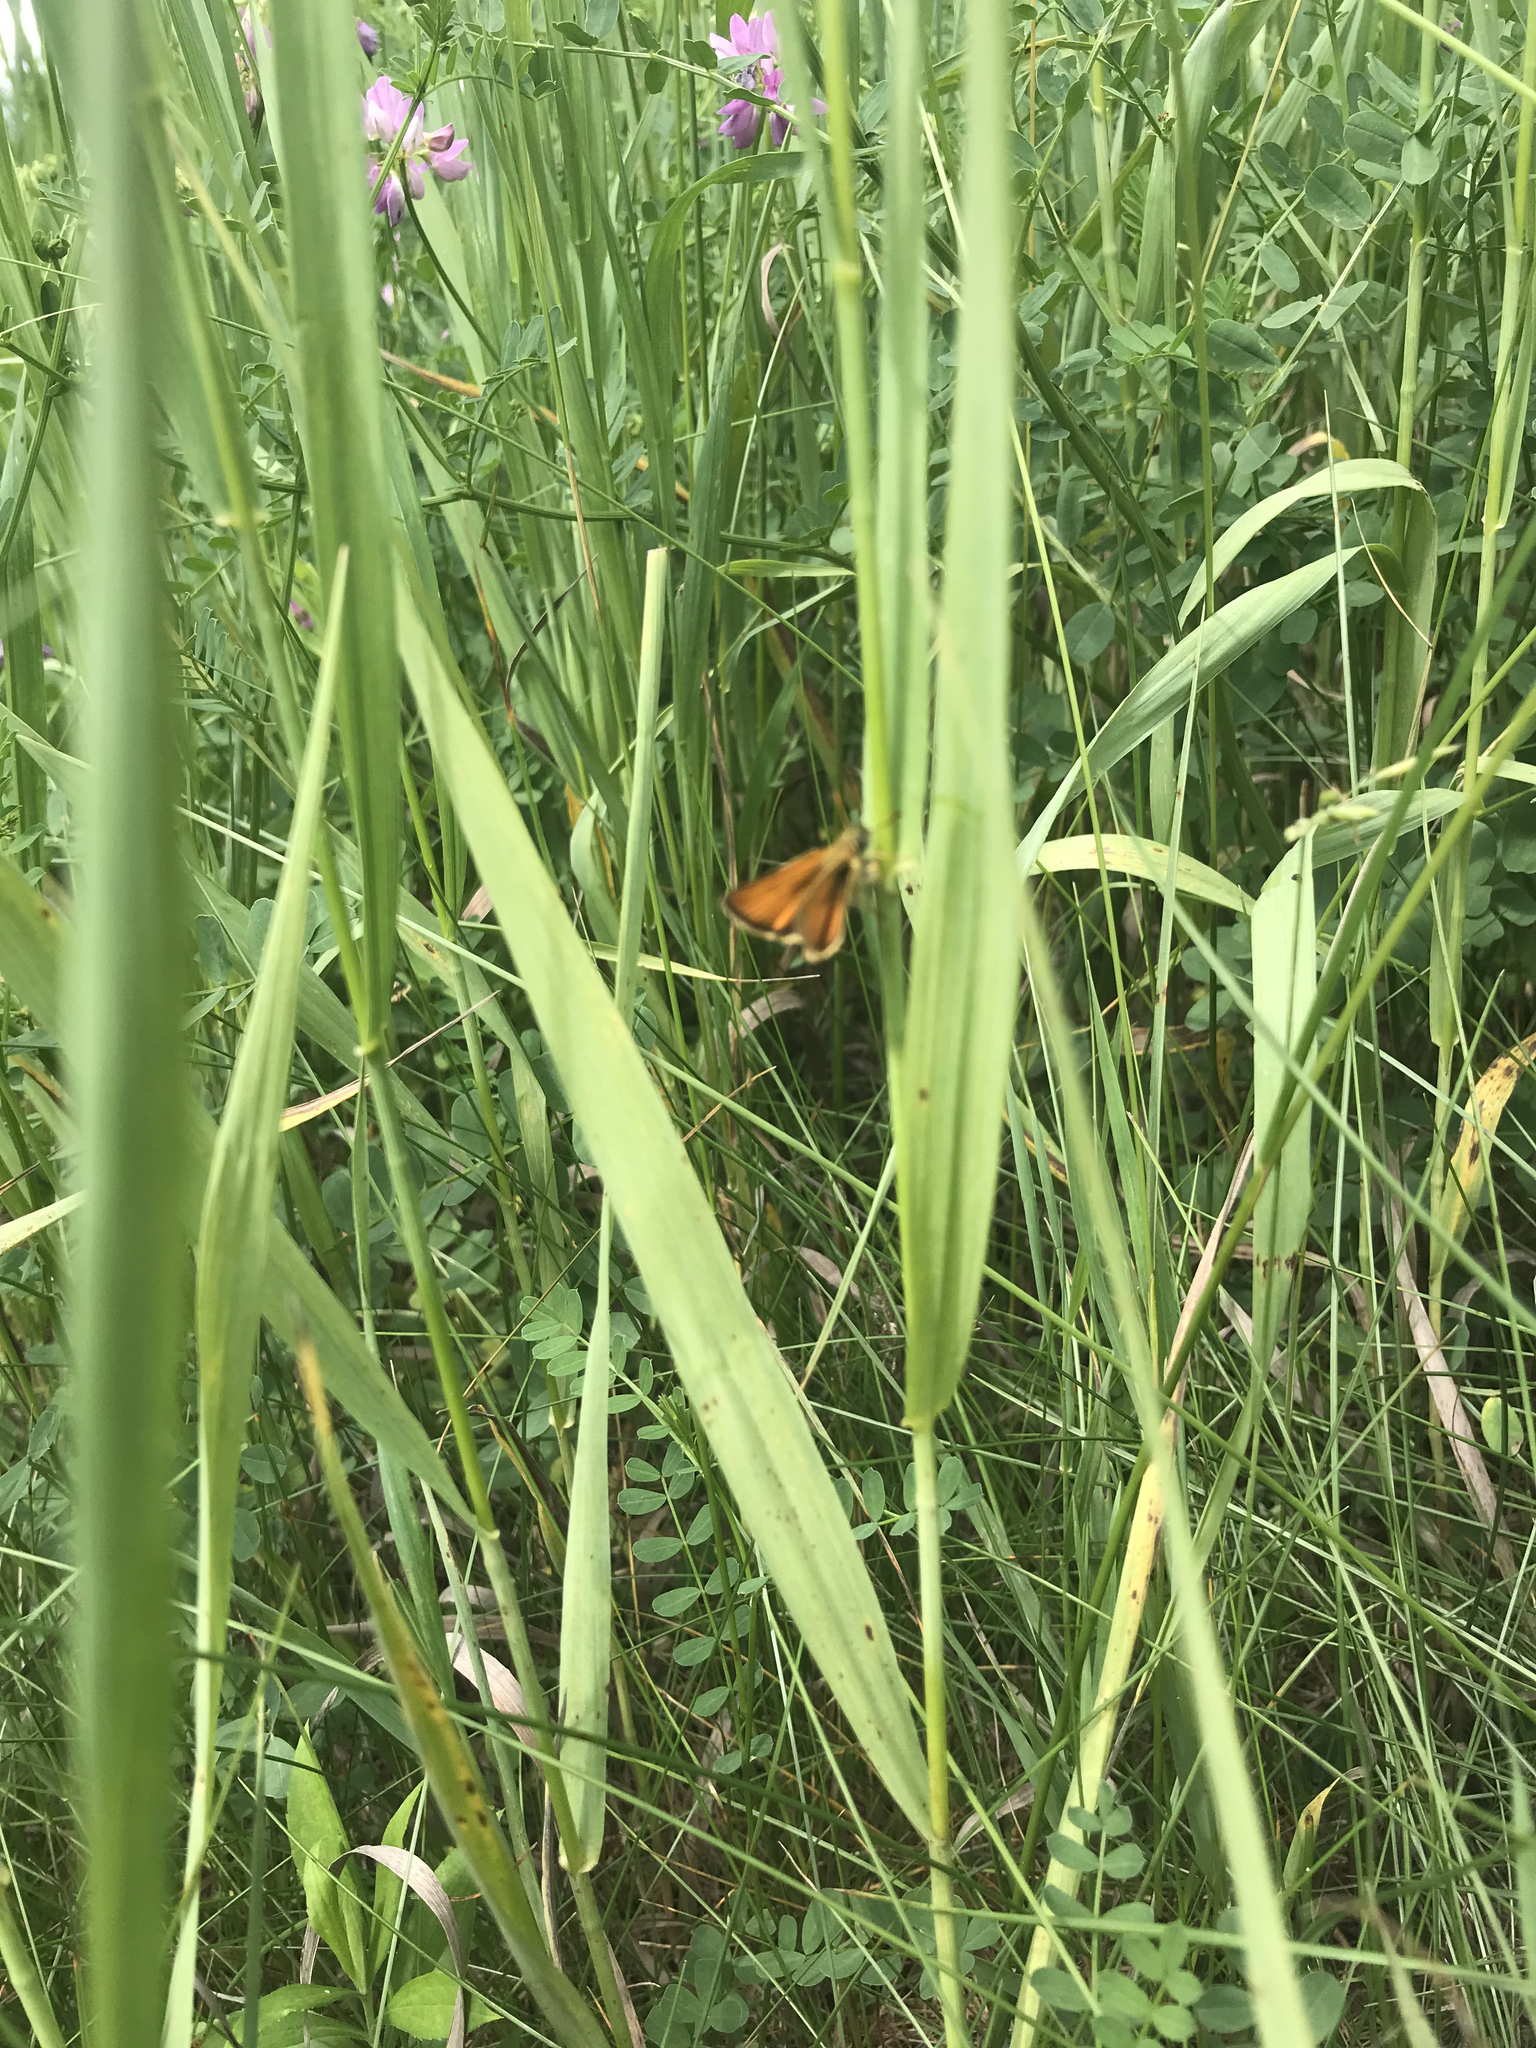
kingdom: Animalia
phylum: Arthropoda
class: Insecta
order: Lepidoptera
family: Hesperiidae
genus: Thymelicus
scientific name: Thymelicus lineola
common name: Essex skipper
